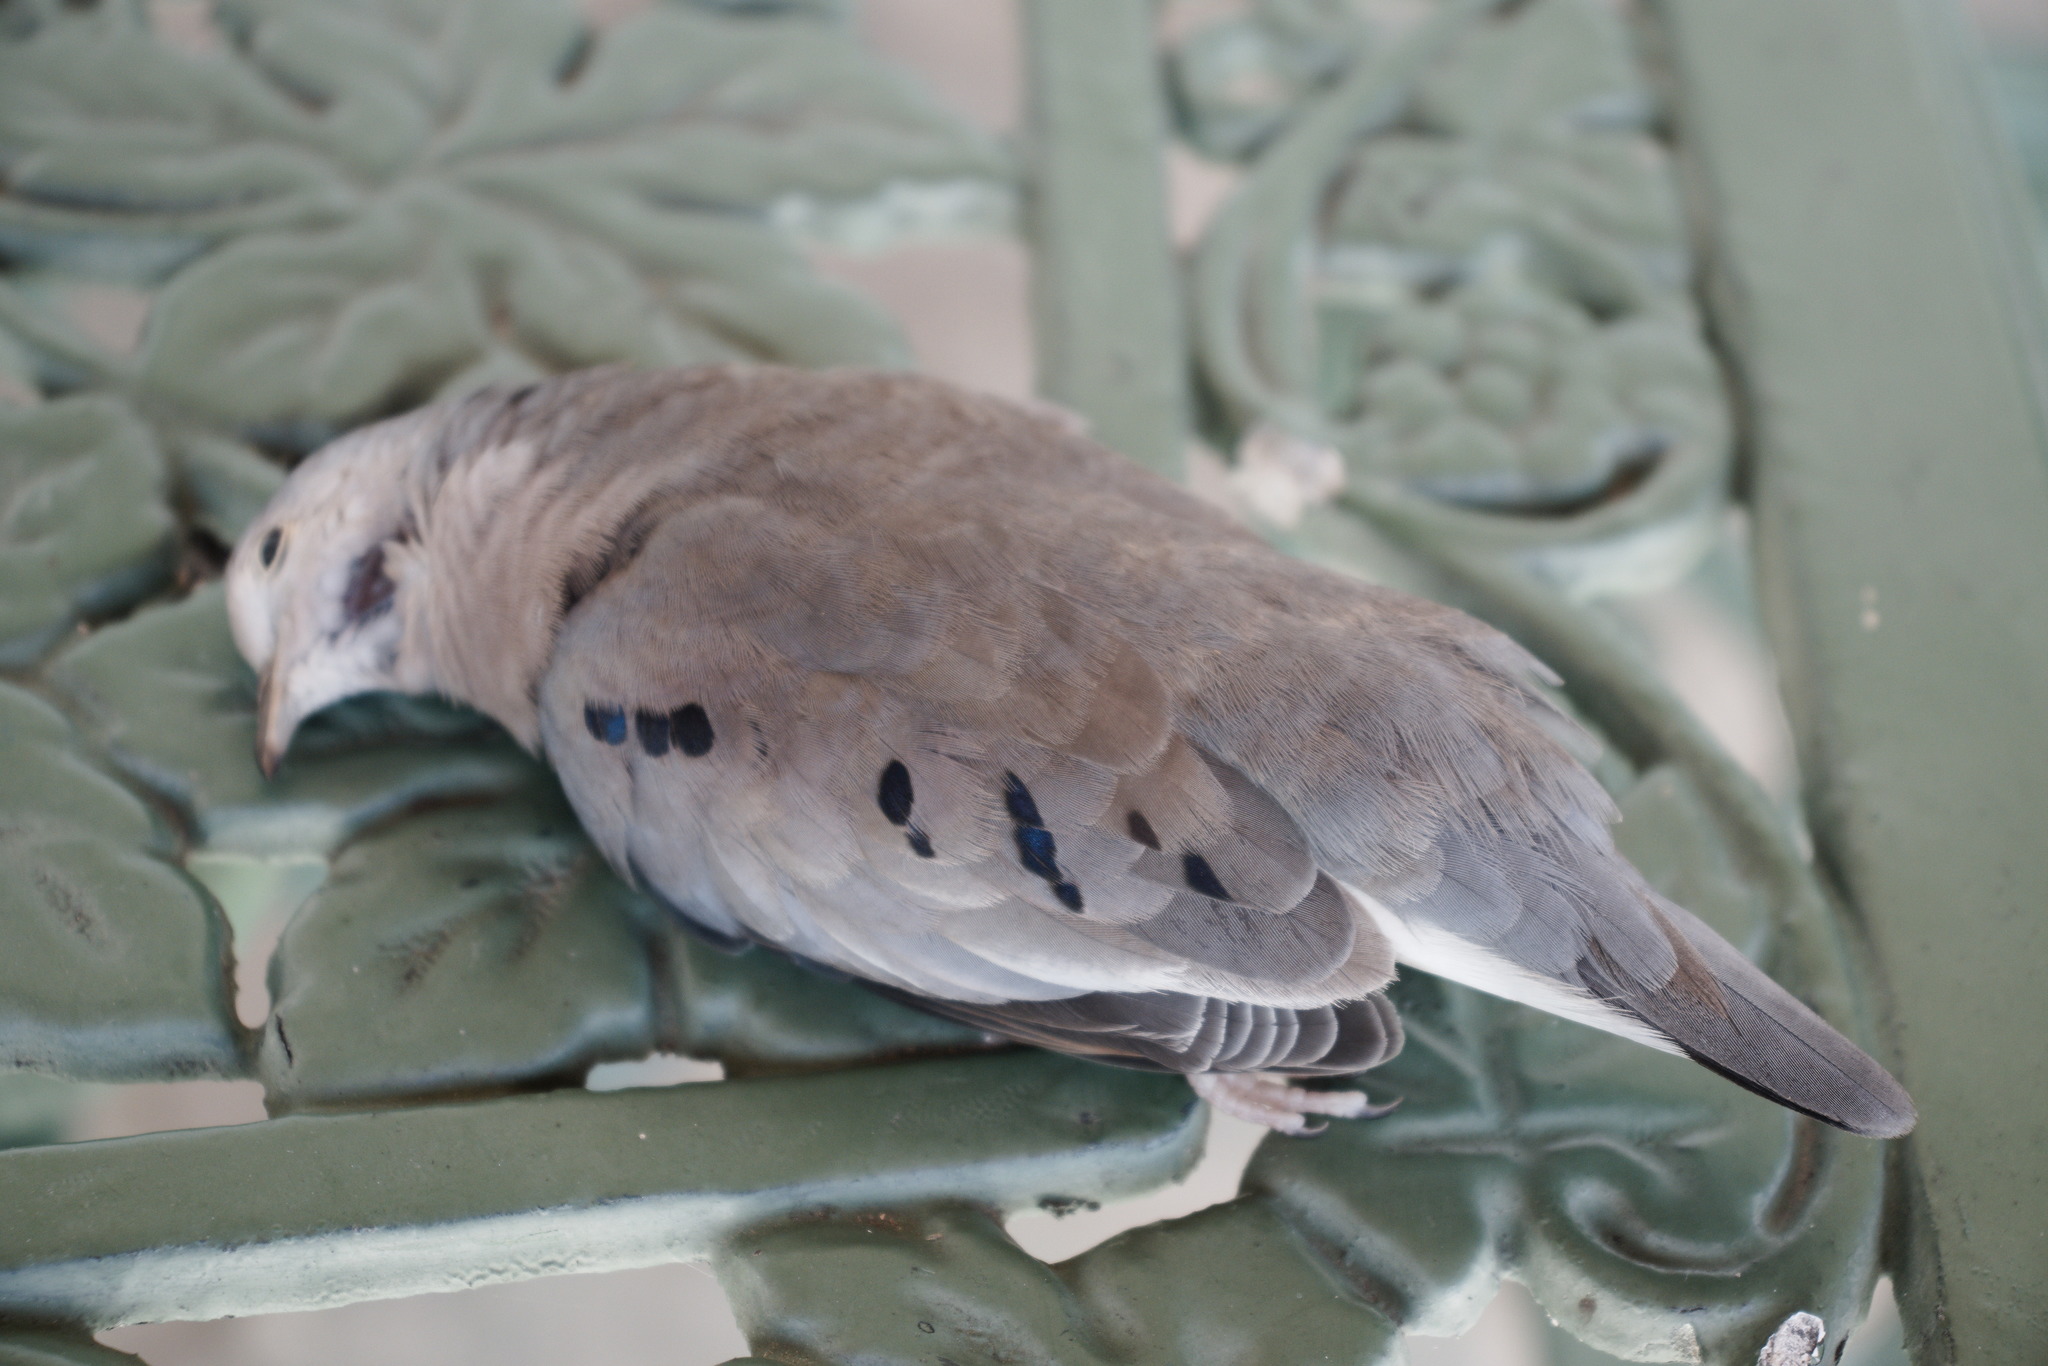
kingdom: Animalia
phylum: Chordata
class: Aves
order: Columbiformes
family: Columbidae
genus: Columbina
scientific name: Columbina picui
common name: Picui ground dove
